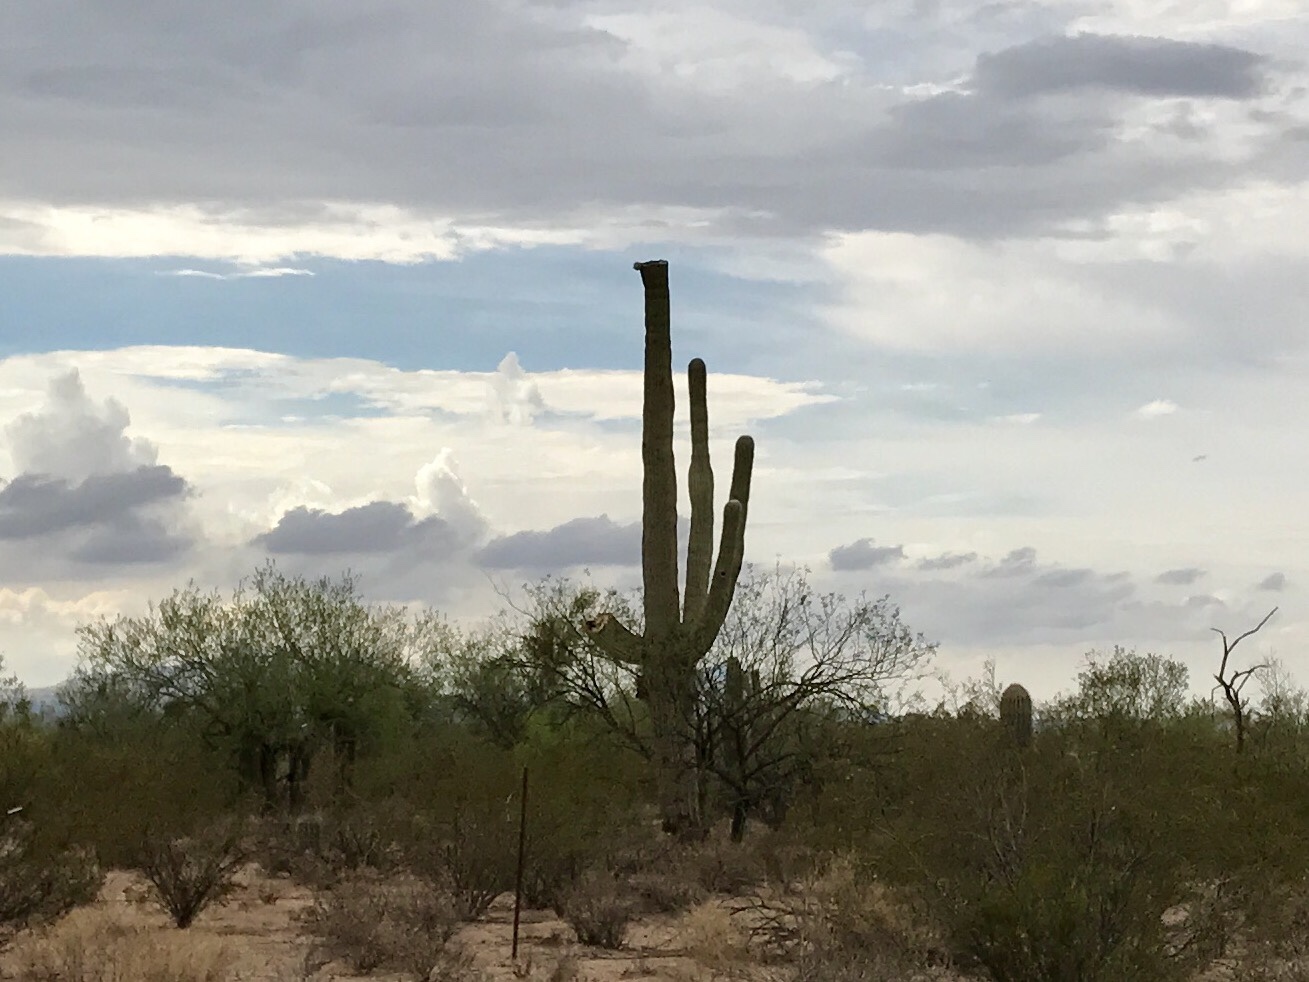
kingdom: Plantae
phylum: Tracheophyta
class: Magnoliopsida
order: Caryophyllales
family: Cactaceae
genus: Carnegiea
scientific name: Carnegiea gigantea
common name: Saguaro
